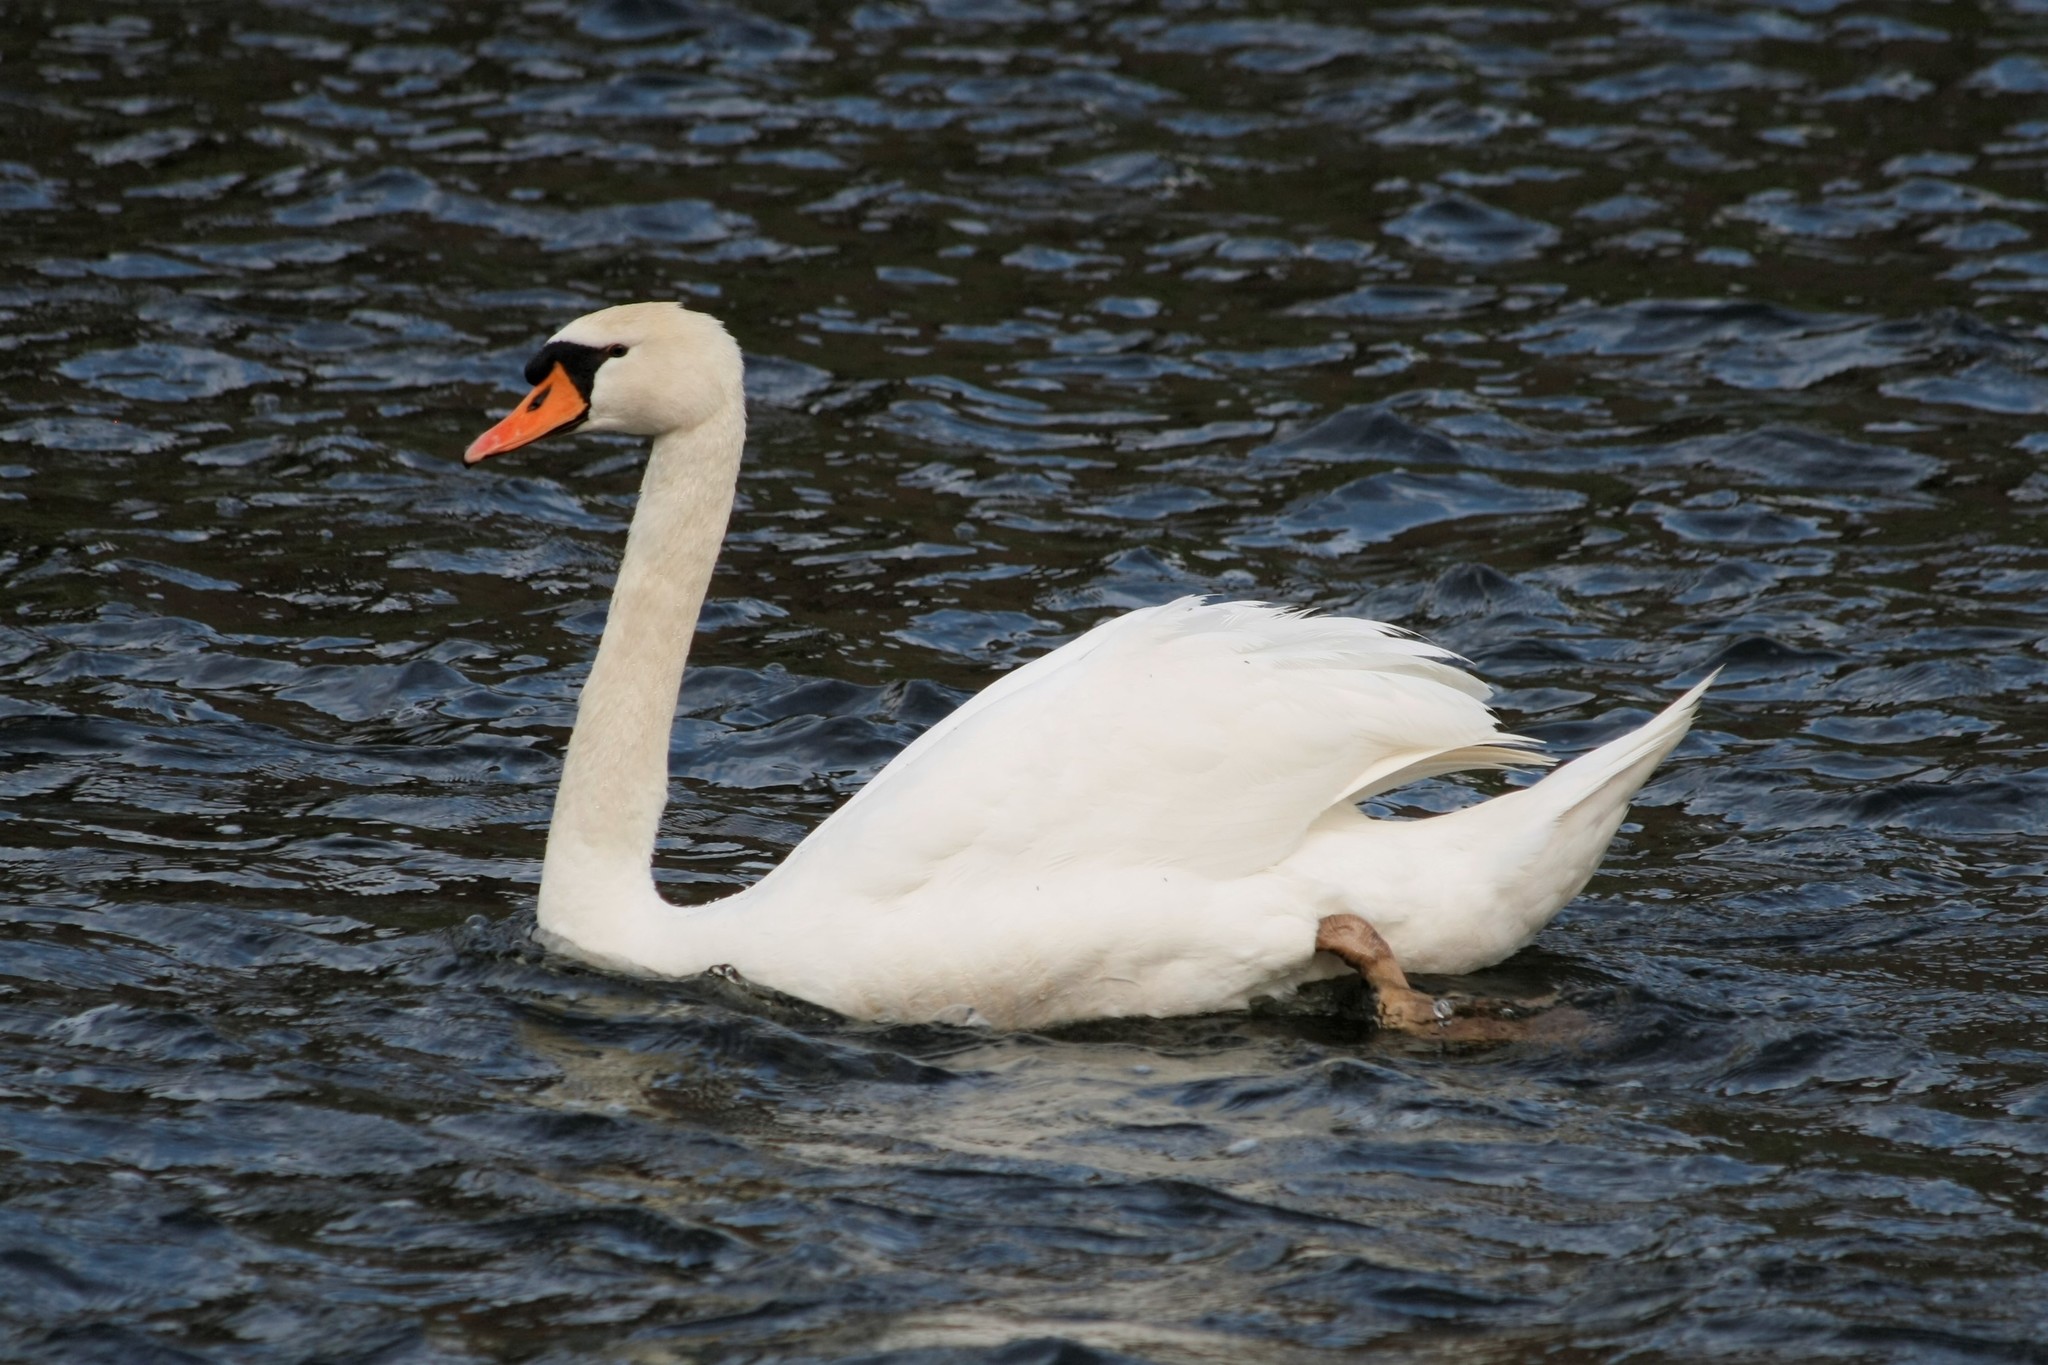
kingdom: Animalia
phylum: Chordata
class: Aves
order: Anseriformes
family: Anatidae
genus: Cygnus
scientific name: Cygnus olor
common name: Mute swan
